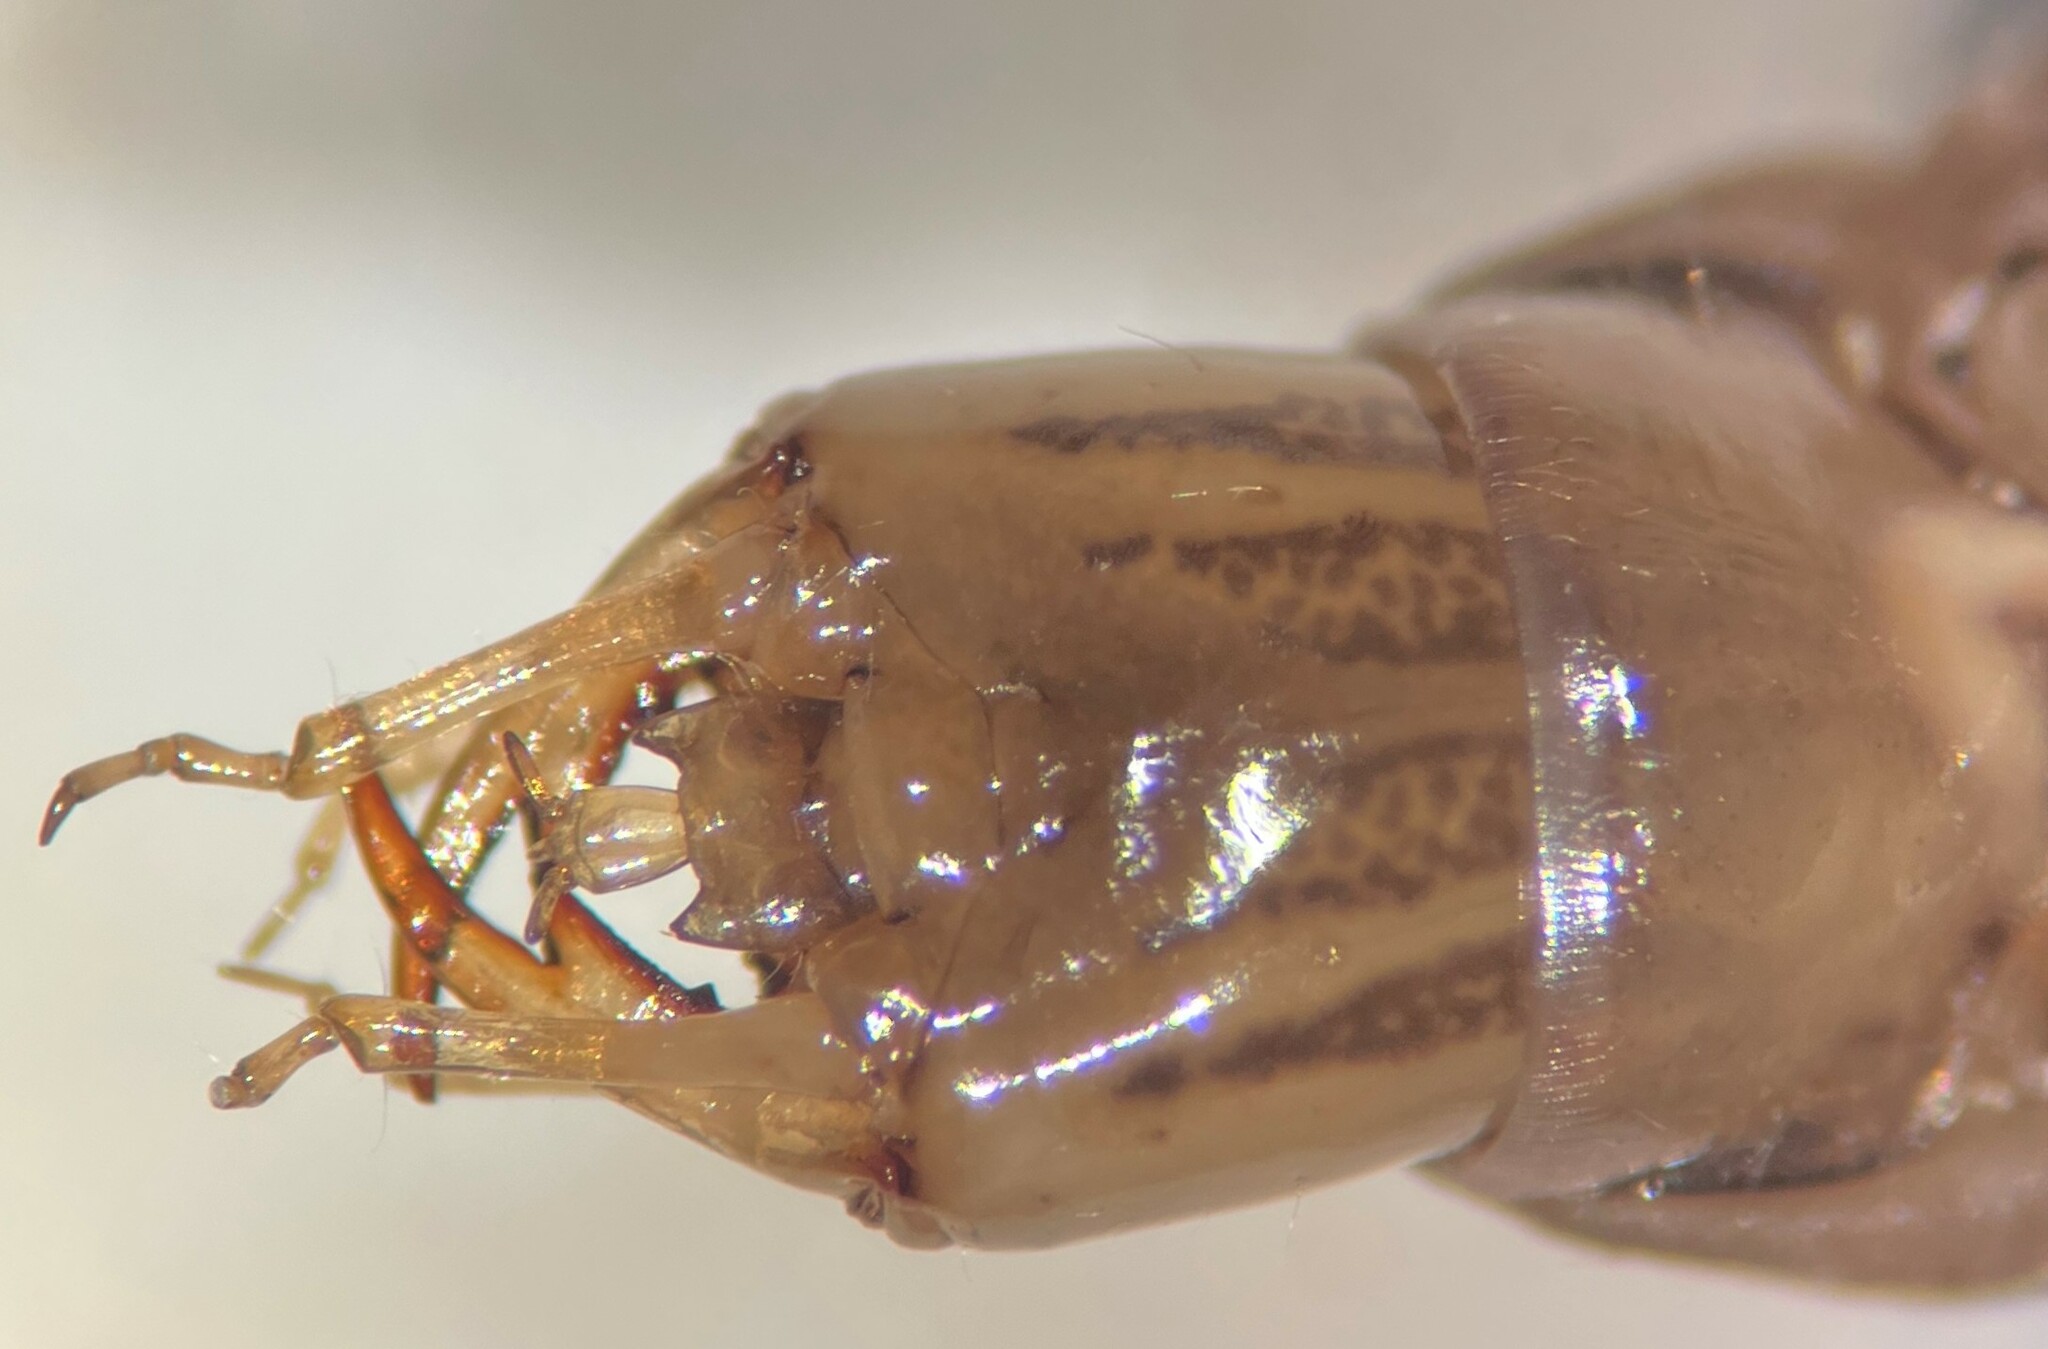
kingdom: Animalia
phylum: Arthropoda
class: Insecta
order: Coleoptera
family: Hydrophilidae
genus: Tropisternus
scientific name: Tropisternus
